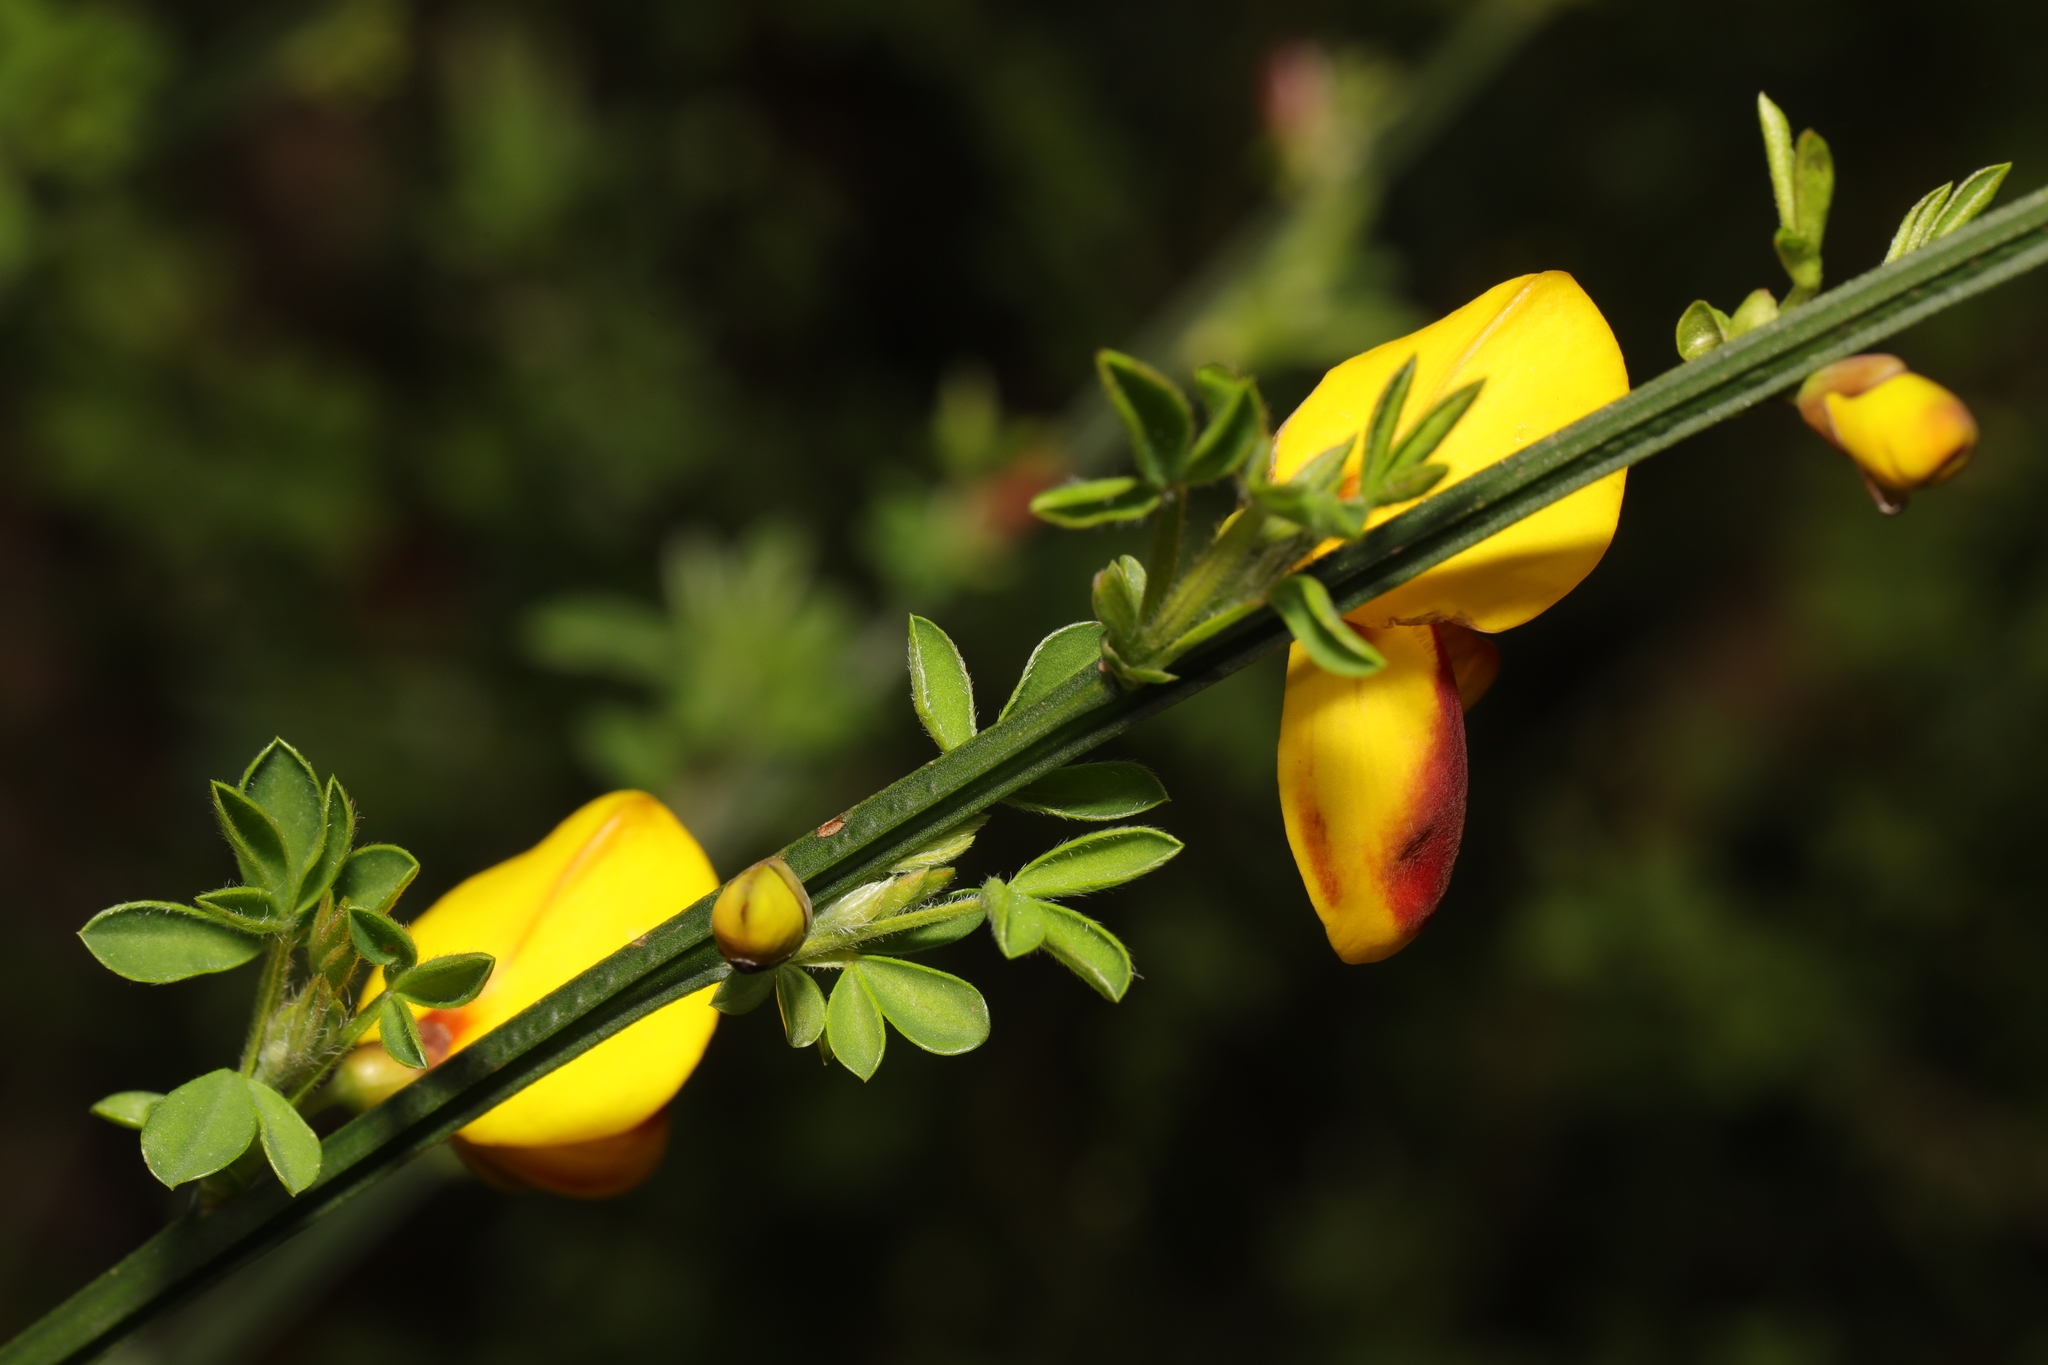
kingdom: Plantae
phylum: Tracheophyta
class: Magnoliopsida
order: Fabales
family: Fabaceae
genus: Cytisus
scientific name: Cytisus scoparius
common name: Scotch broom
